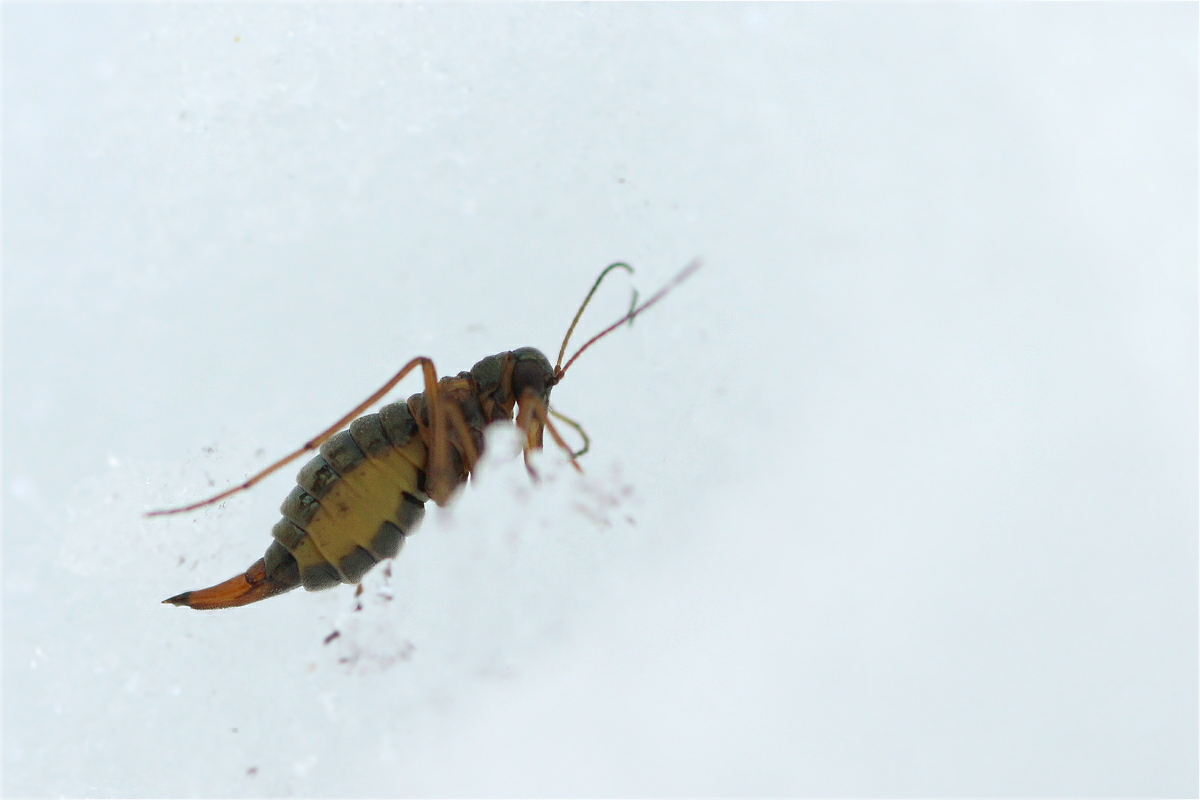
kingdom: Animalia
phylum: Arthropoda
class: Insecta
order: Mecoptera
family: Boreidae
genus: Boreus
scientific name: Boreus westwoodi
